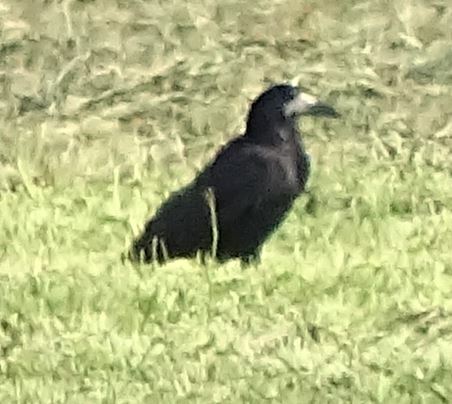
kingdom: Animalia
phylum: Chordata
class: Aves
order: Passeriformes
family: Corvidae
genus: Corvus
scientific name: Corvus frugilegus
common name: Rook
